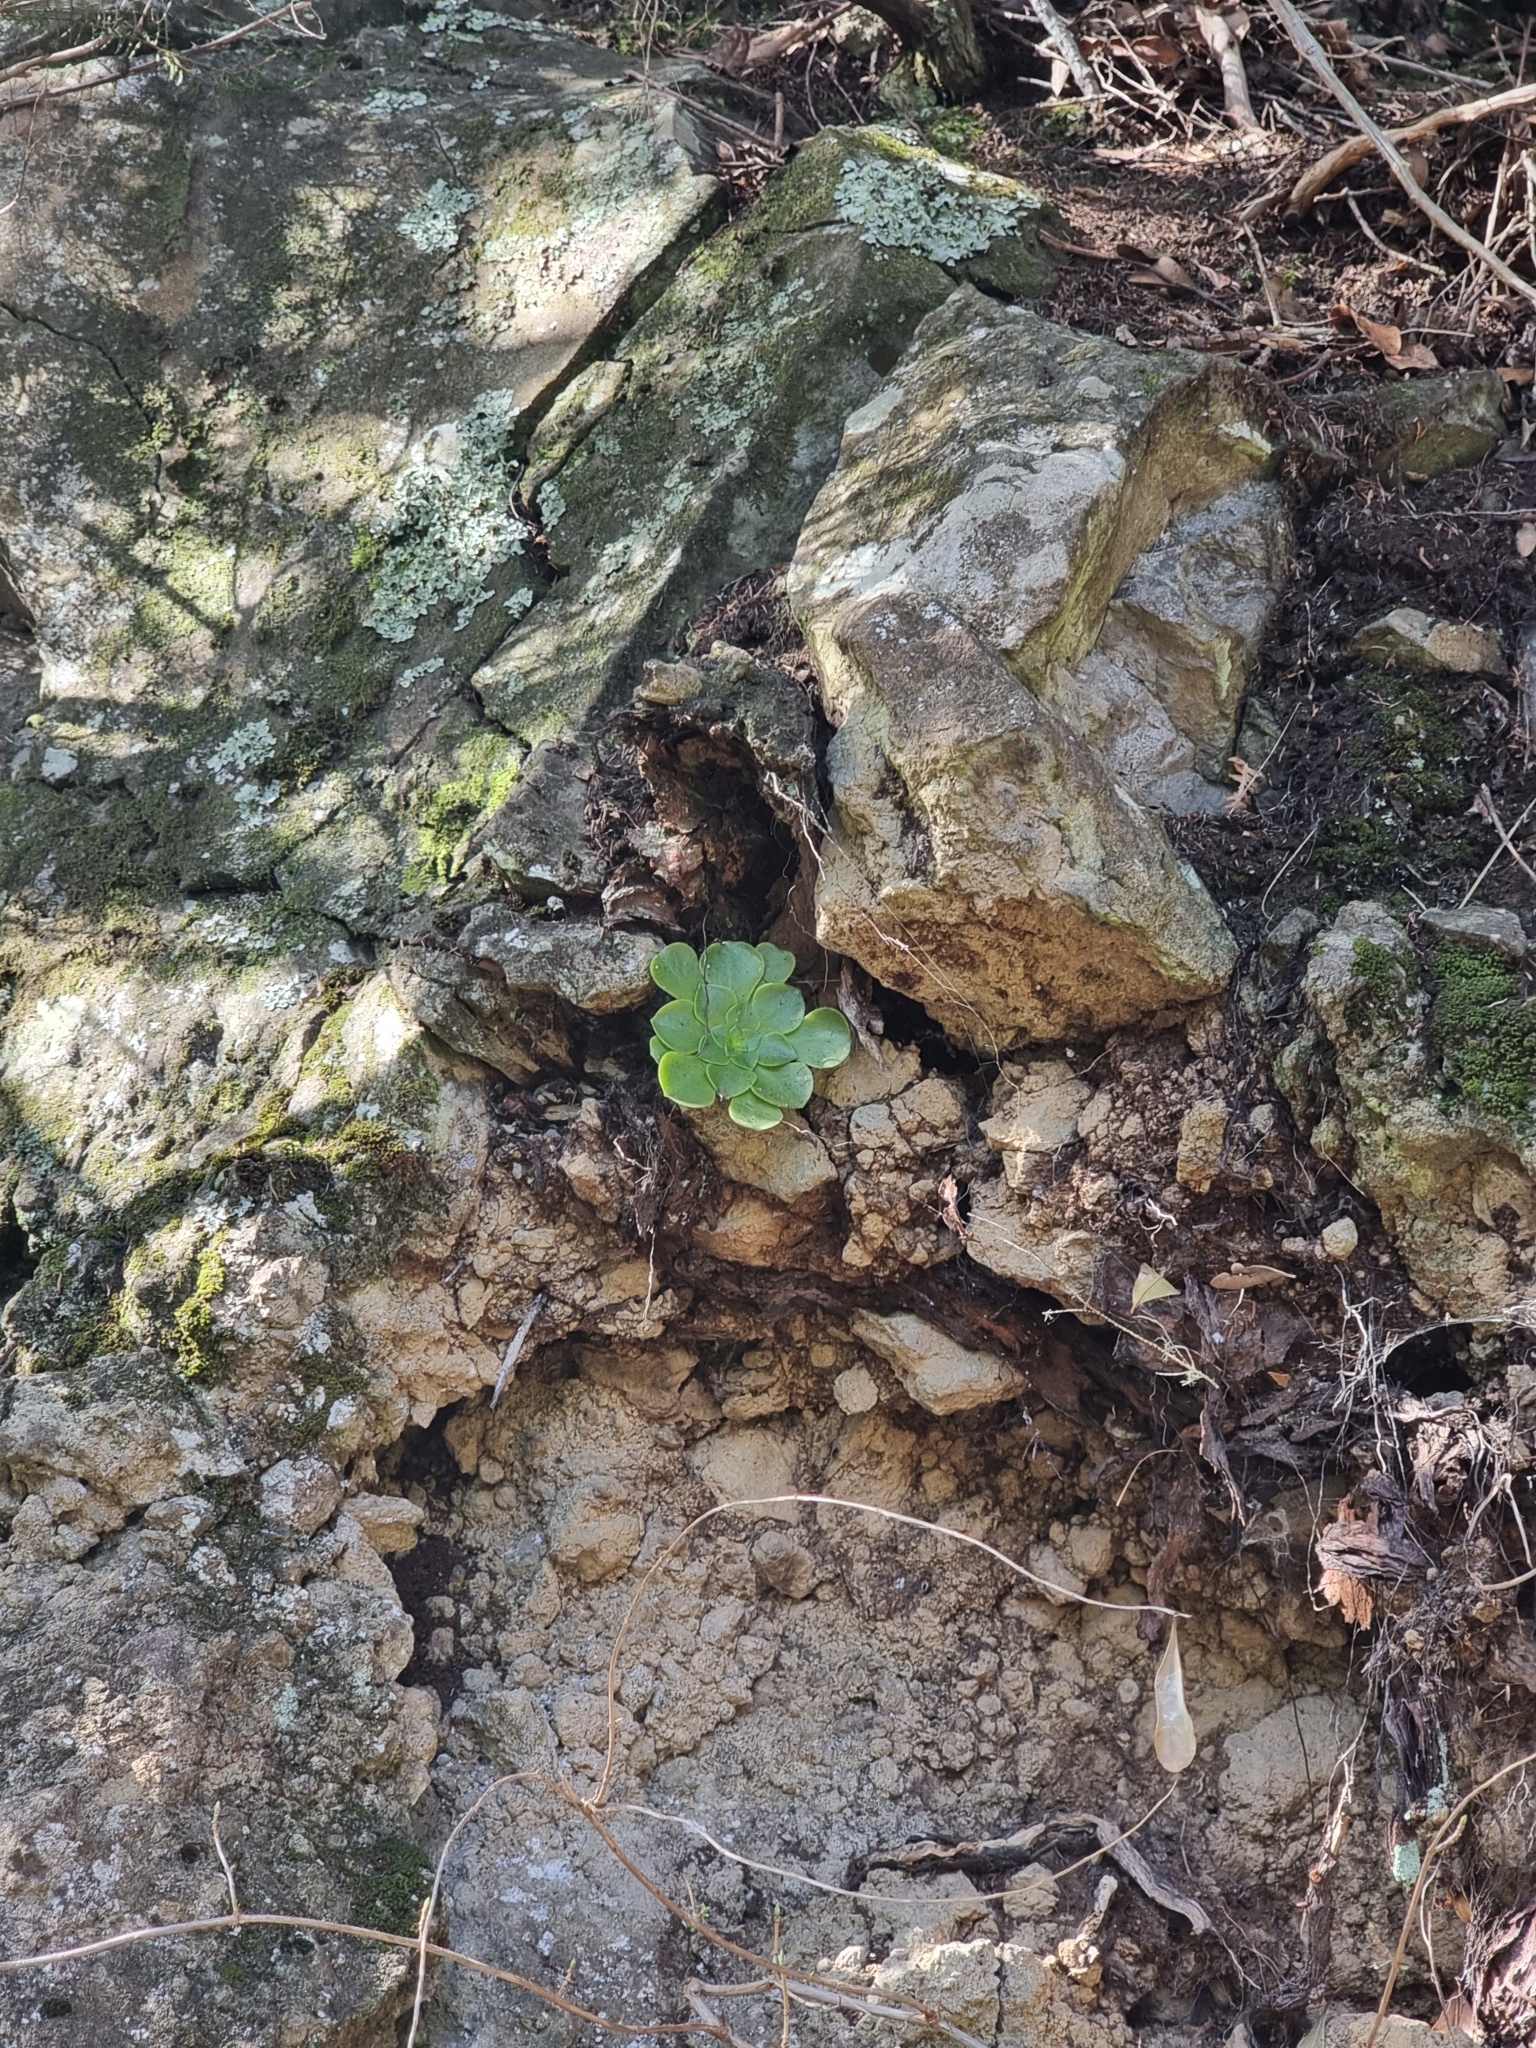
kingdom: Plantae
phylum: Tracheophyta
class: Magnoliopsida
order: Saxifragales
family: Crassulaceae
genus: Aeonium
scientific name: Aeonium glandulosum
